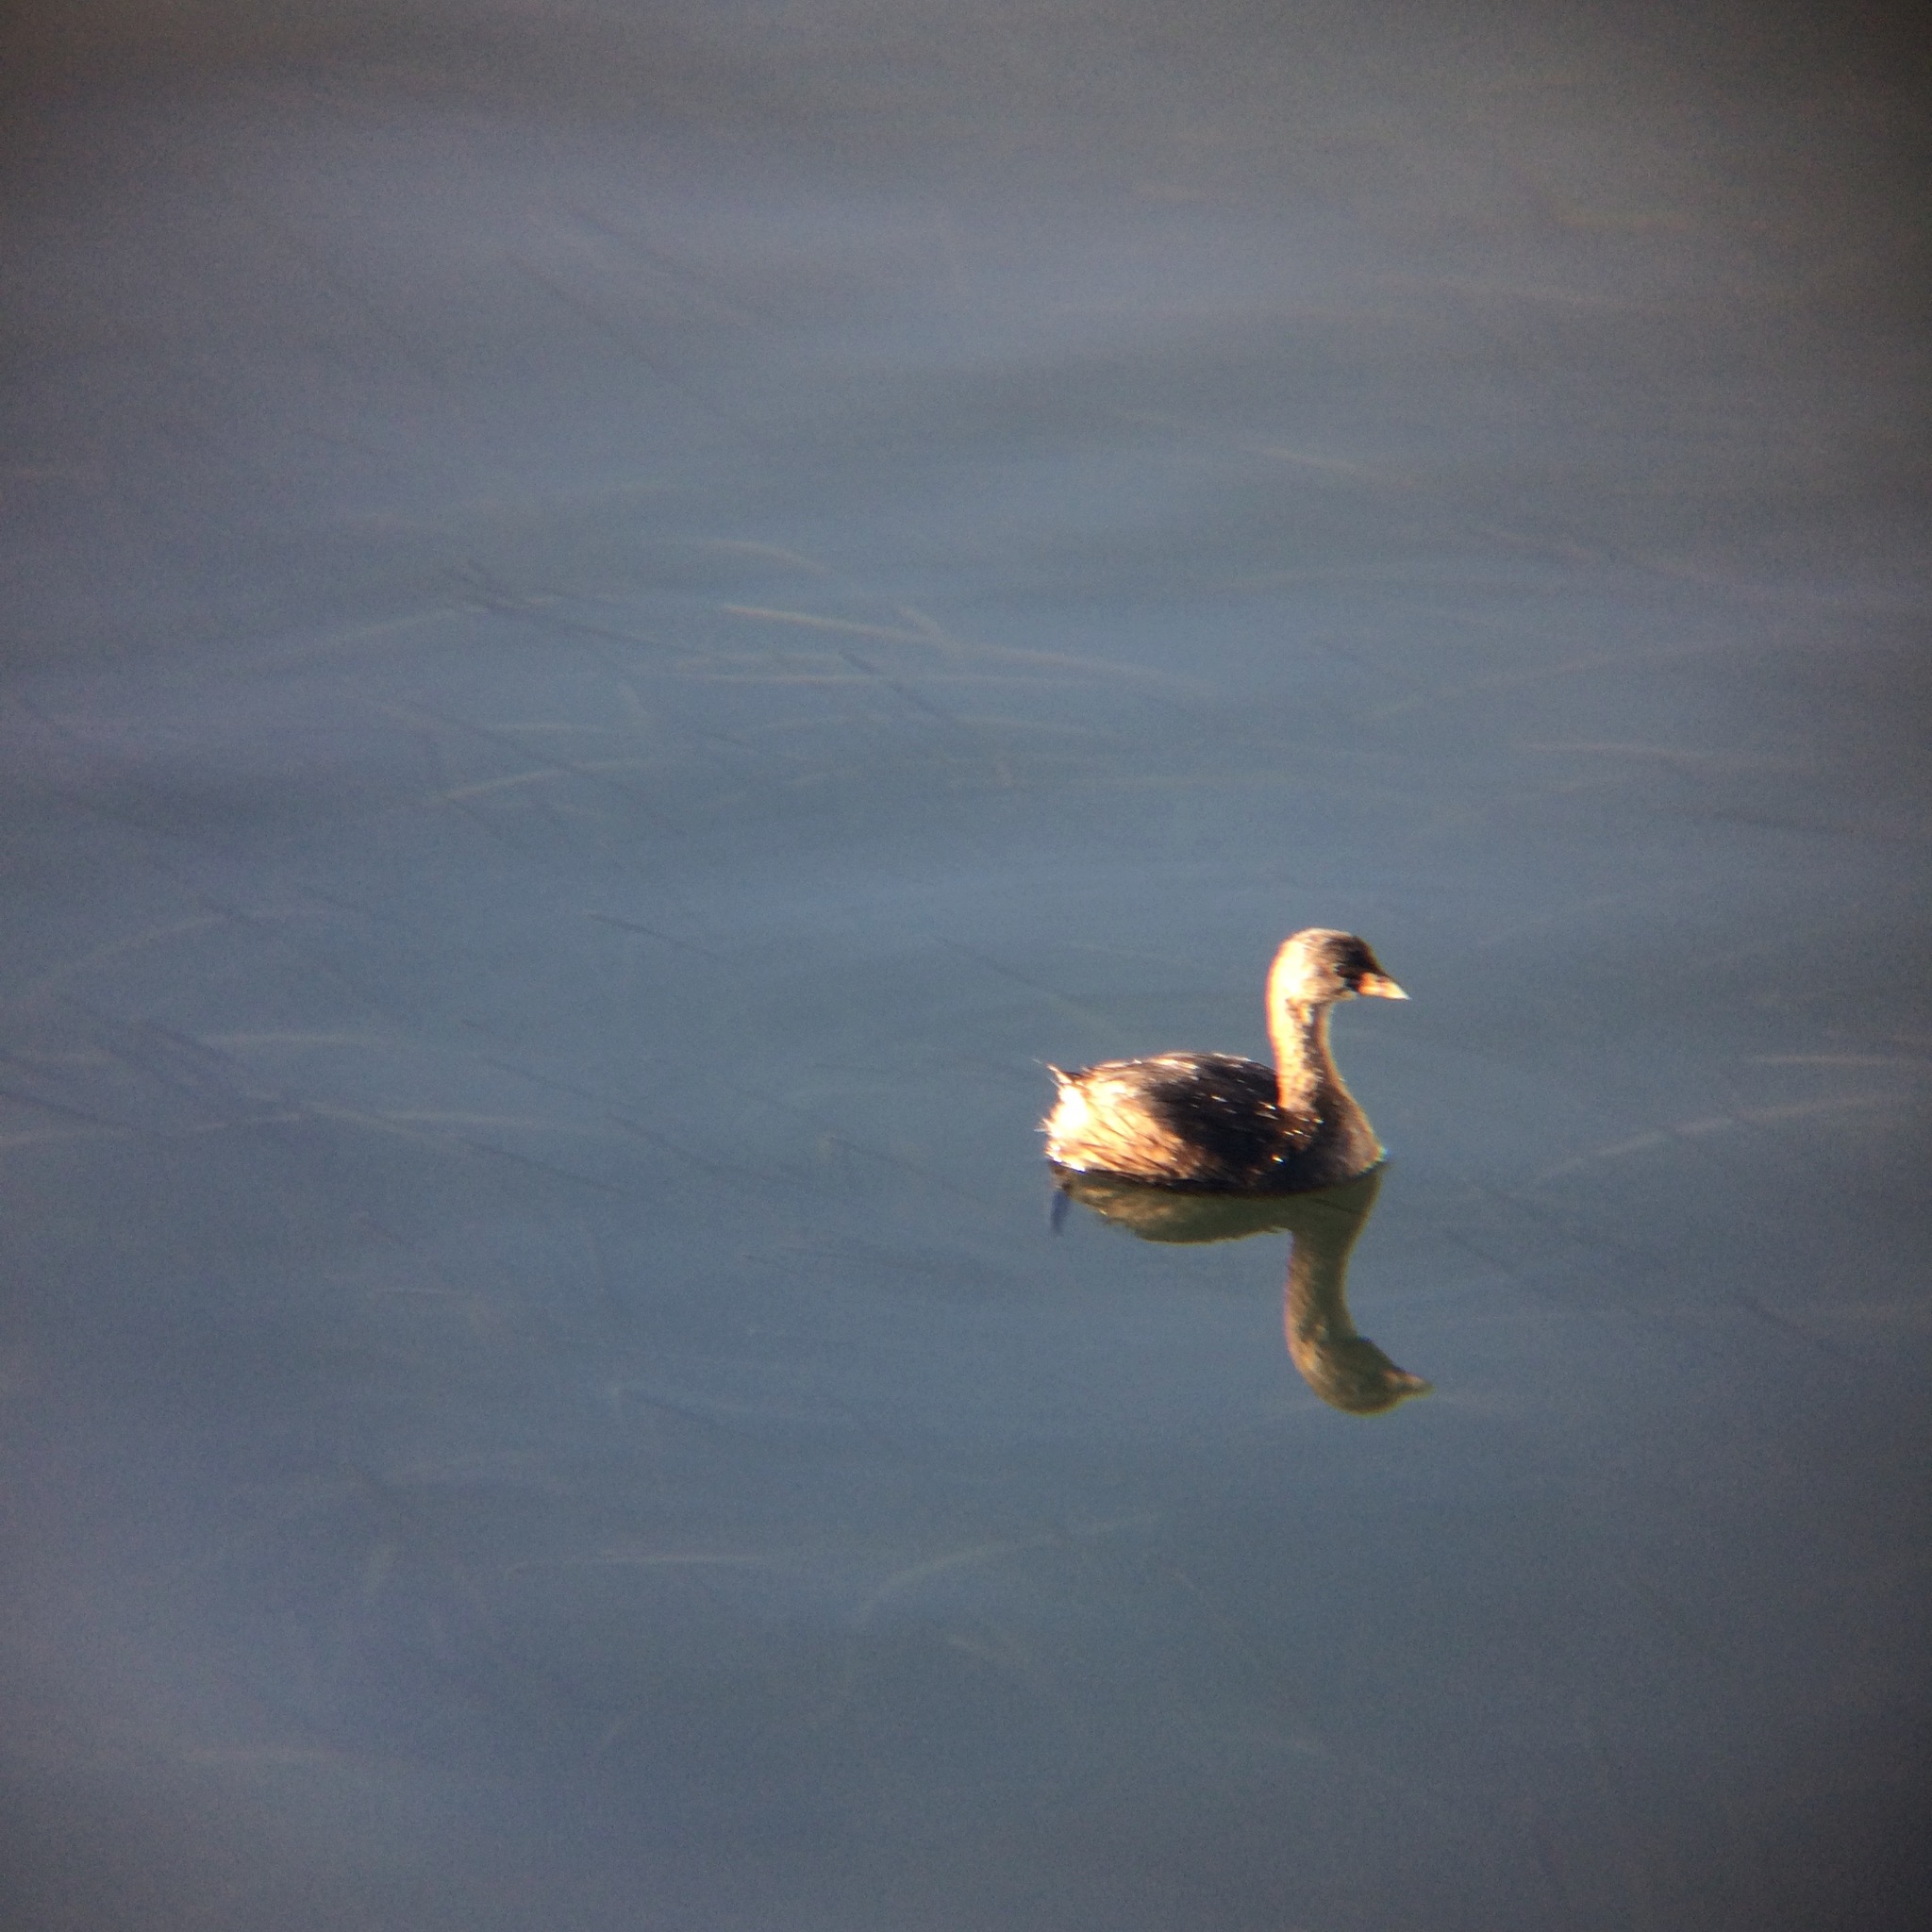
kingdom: Animalia
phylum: Chordata
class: Aves
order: Podicipediformes
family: Podicipedidae
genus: Podilymbus
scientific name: Podilymbus podiceps
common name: Pied-billed grebe
